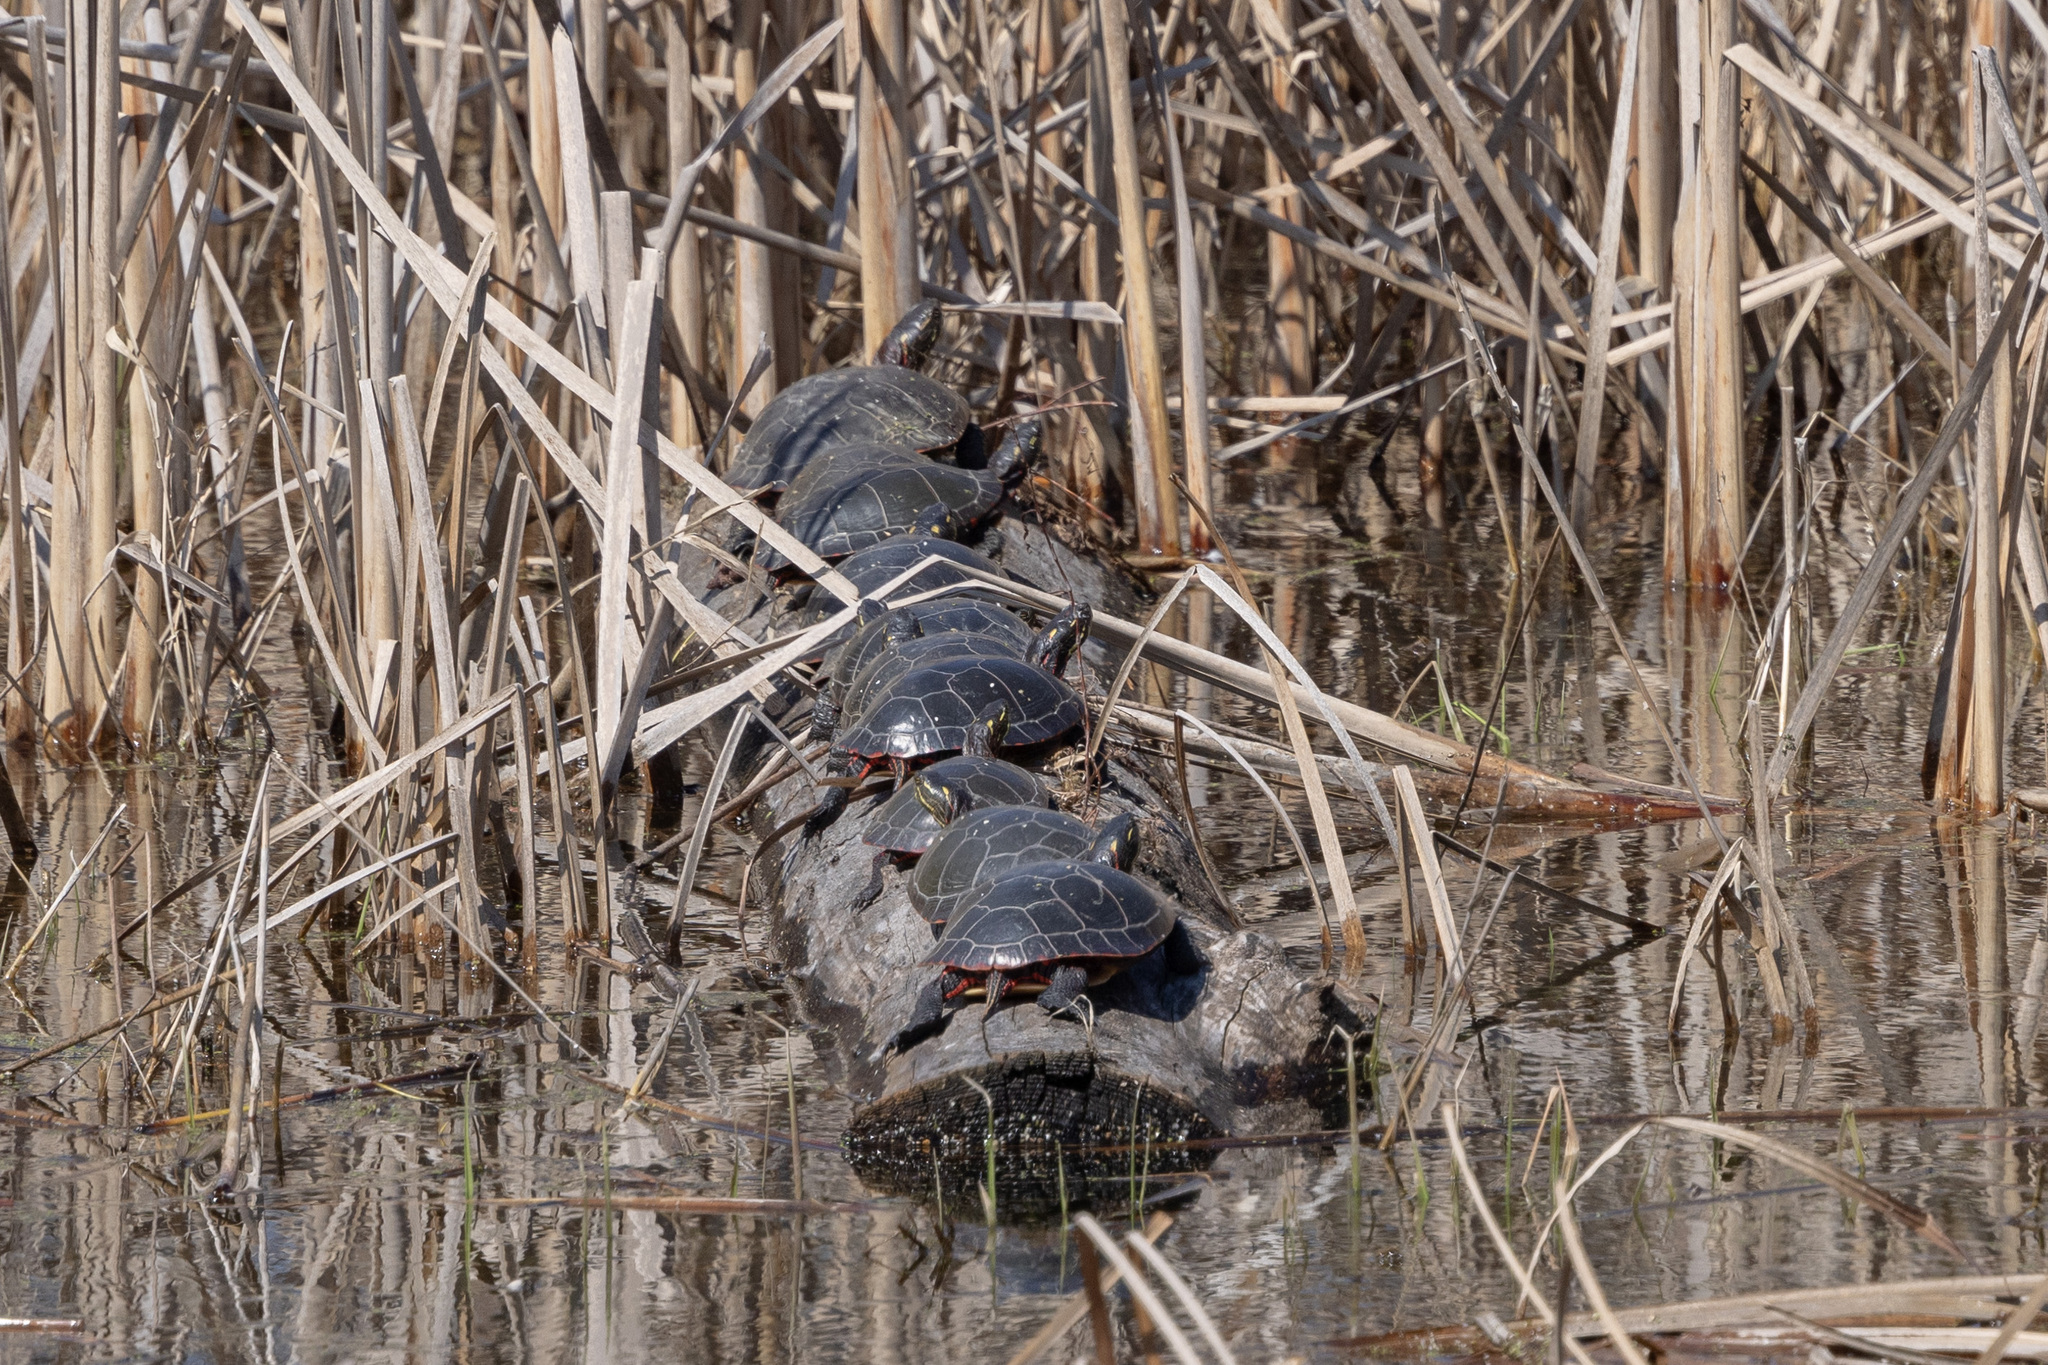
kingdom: Animalia
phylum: Chordata
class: Testudines
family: Emydidae
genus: Chrysemys
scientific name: Chrysemys picta
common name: Painted turtle
